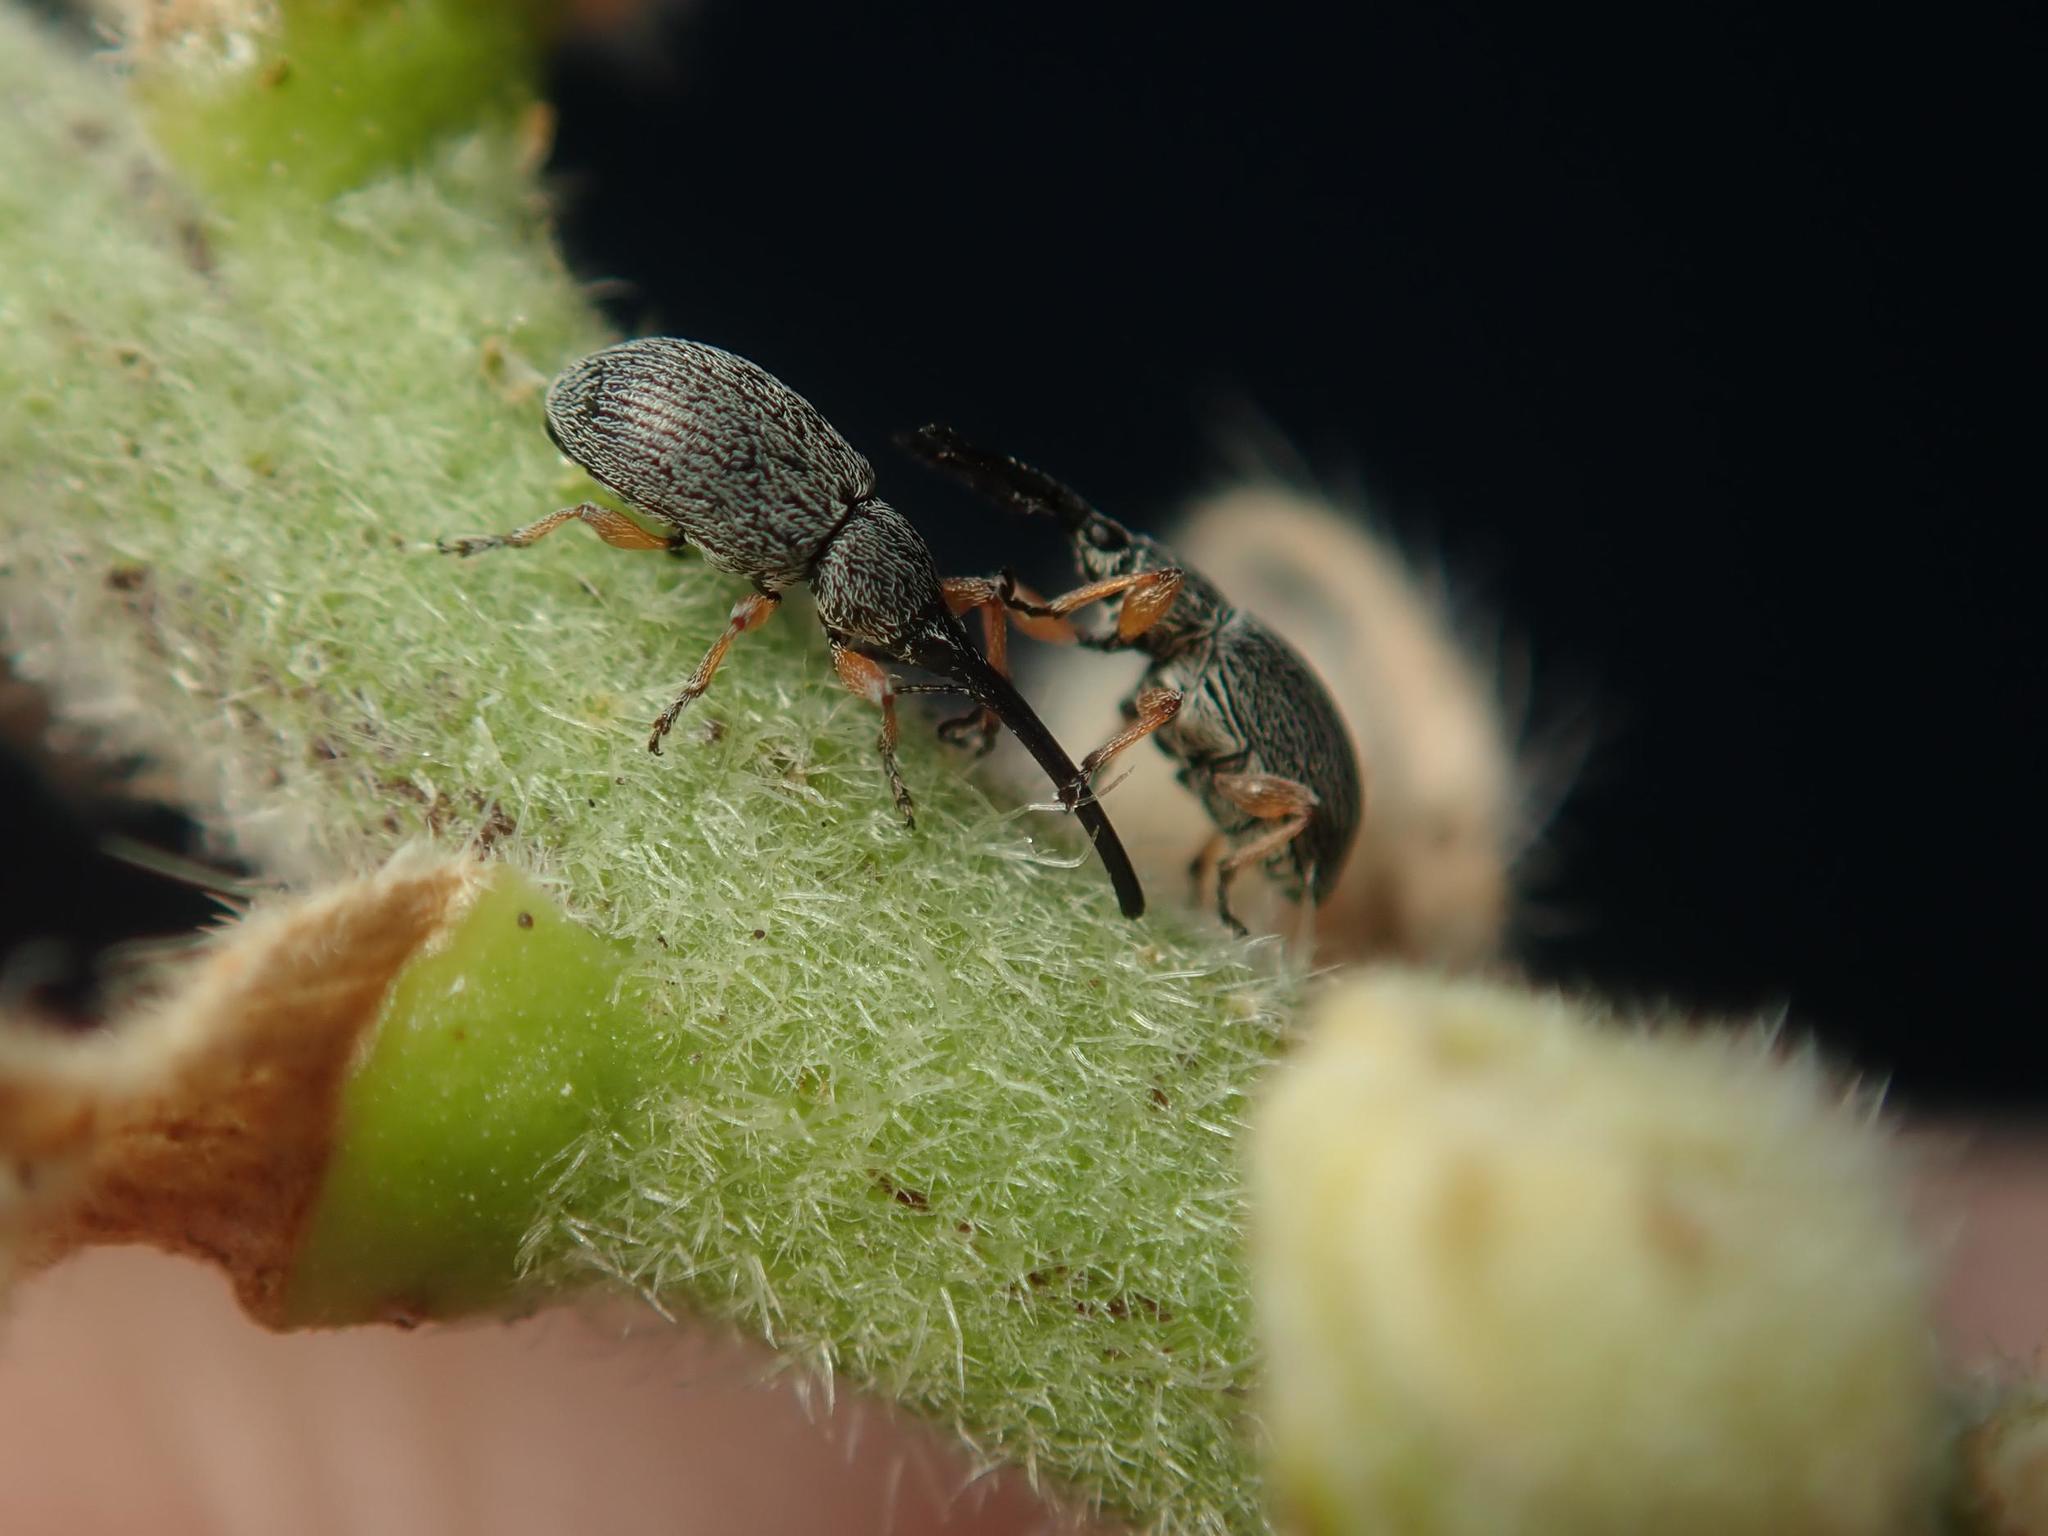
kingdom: Animalia
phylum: Arthropoda
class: Insecta
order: Coleoptera
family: Brentidae
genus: Rhopalapion
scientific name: Rhopalapion longirostre
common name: Hollyhock weevil
